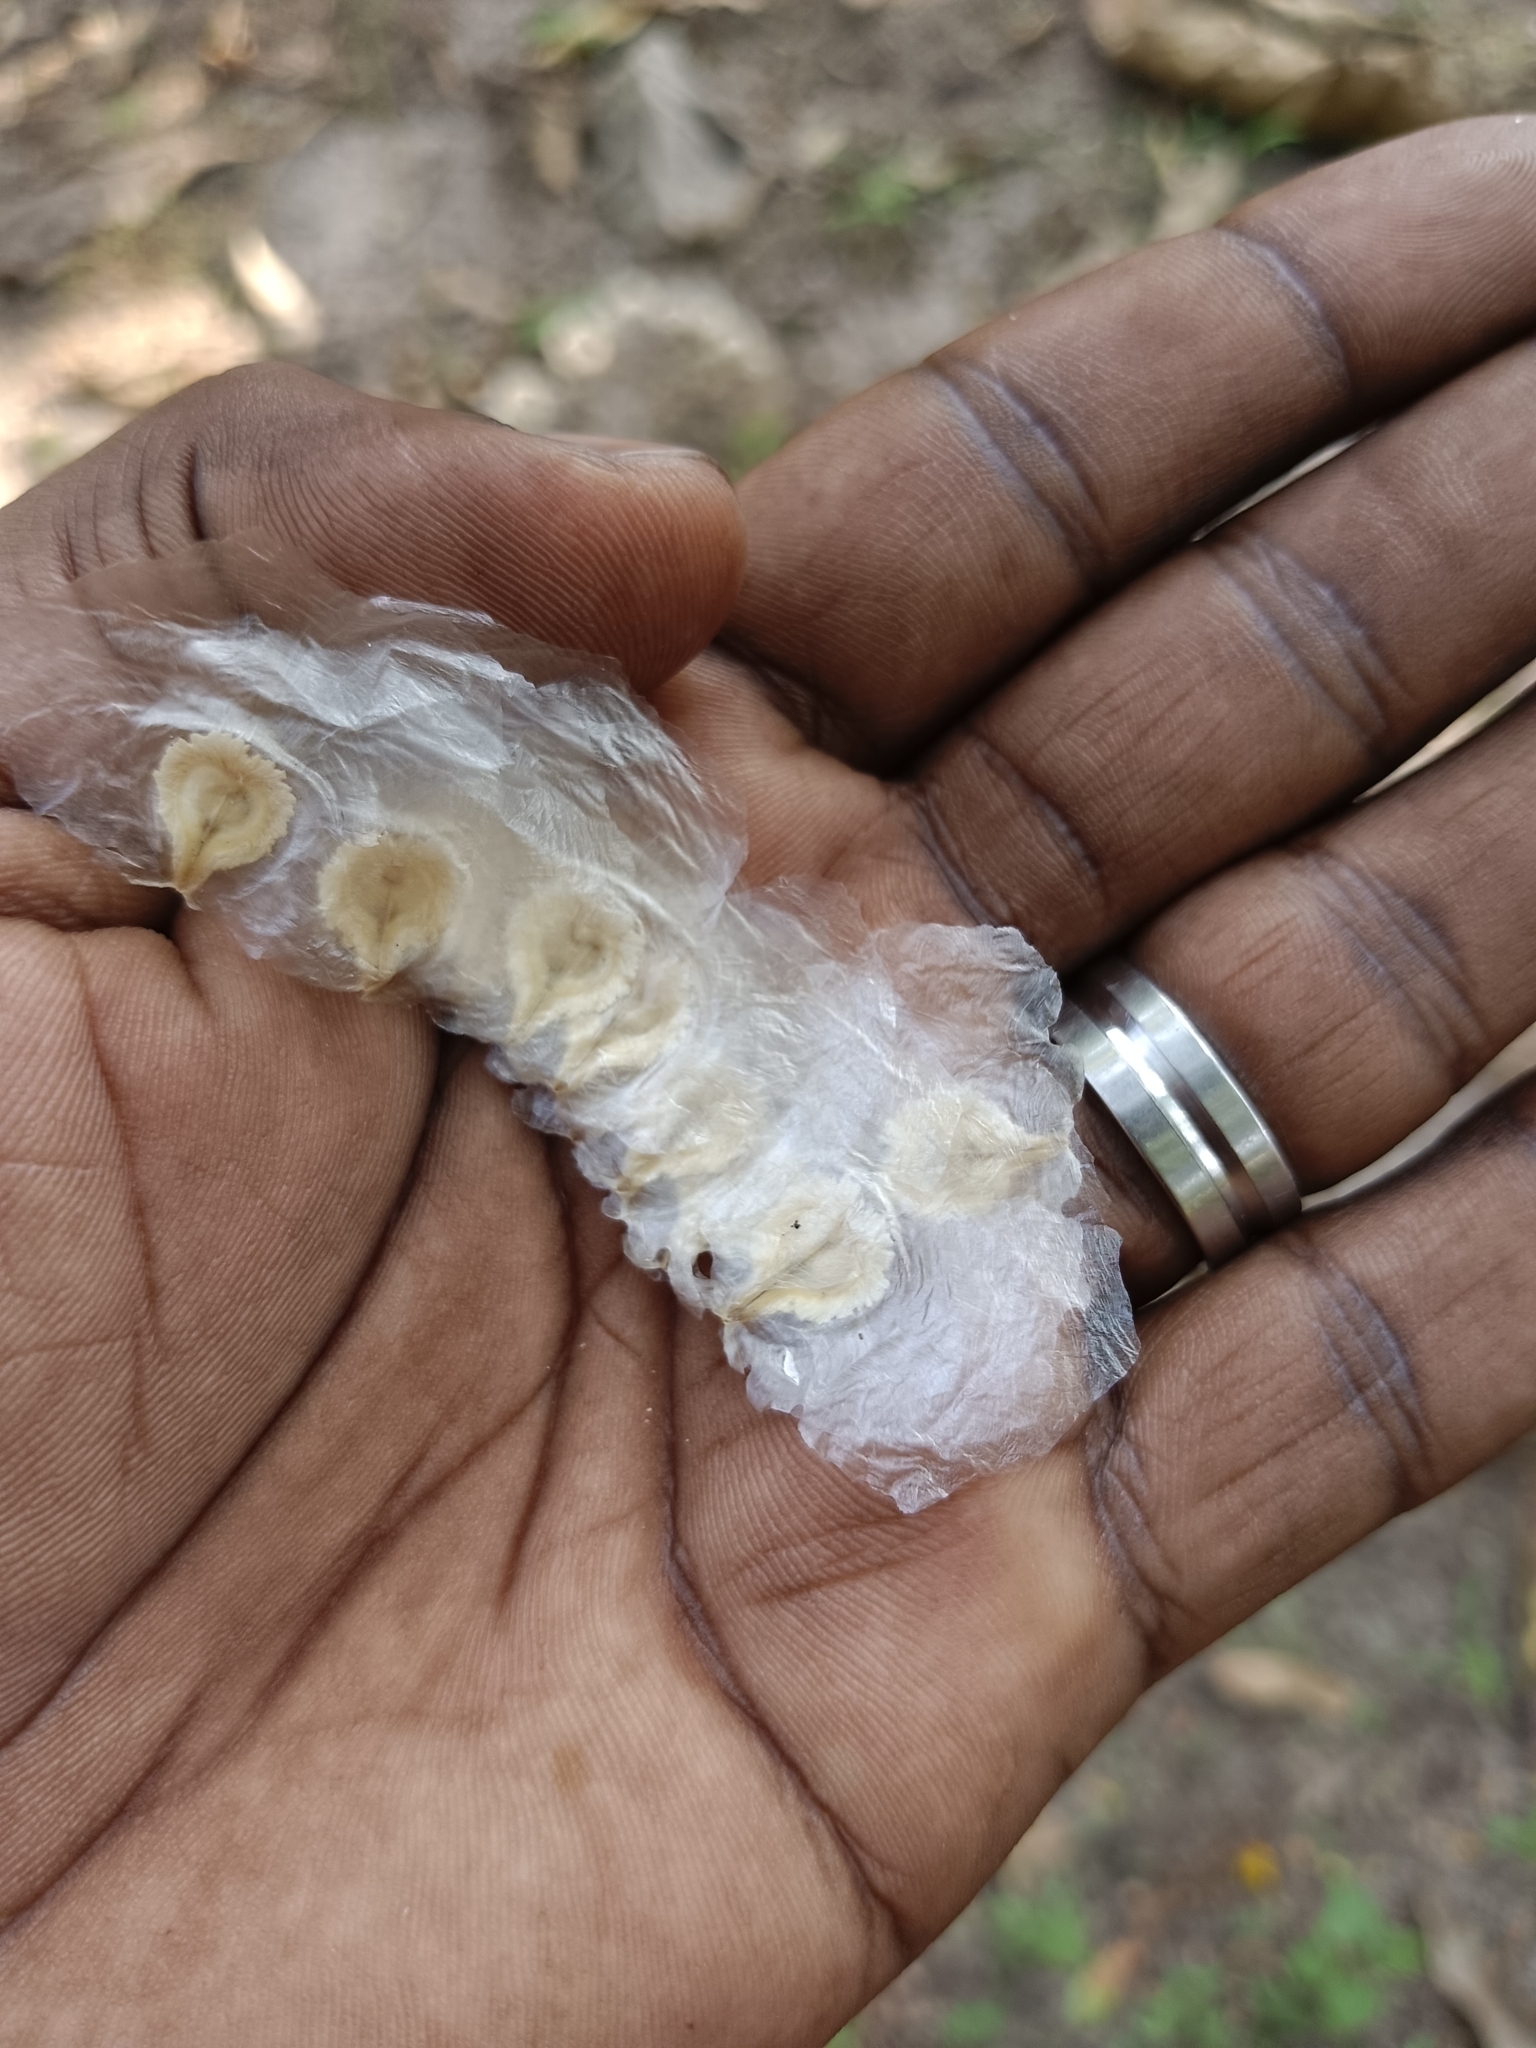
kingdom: Plantae
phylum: Tracheophyta
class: Magnoliopsida
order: Lamiales
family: Bignoniaceae
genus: Spathodea
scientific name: Spathodea campanulata
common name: African tuliptree
